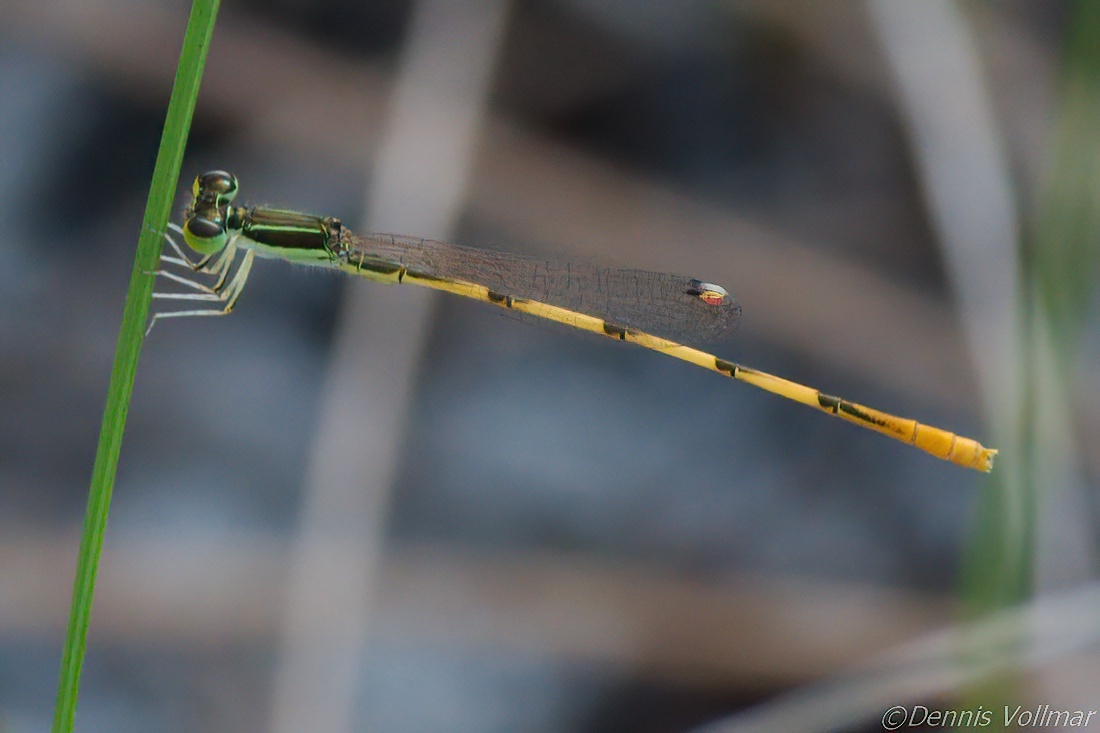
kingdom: Animalia
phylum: Arthropoda
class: Insecta
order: Odonata
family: Coenagrionidae
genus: Ischnura
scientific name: Ischnura hastata
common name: Citrine forktail
